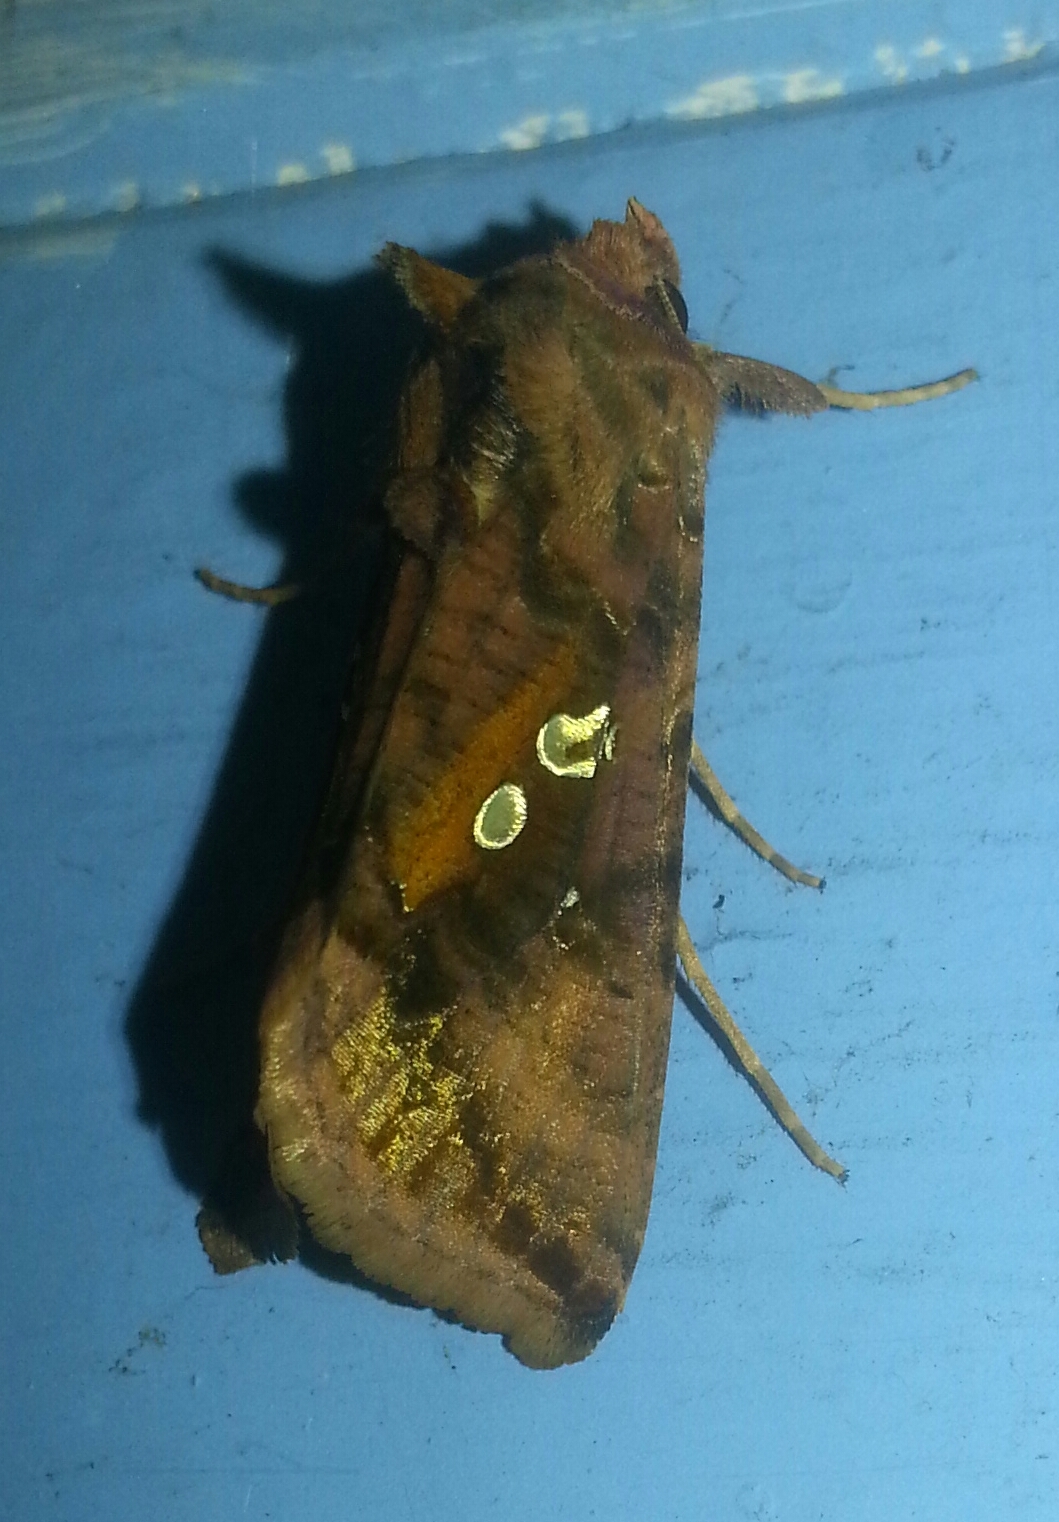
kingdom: Animalia
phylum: Arthropoda
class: Insecta
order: Lepidoptera
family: Noctuidae
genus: Autographa
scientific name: Autographa bimaculata
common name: Double-spotted spangle
